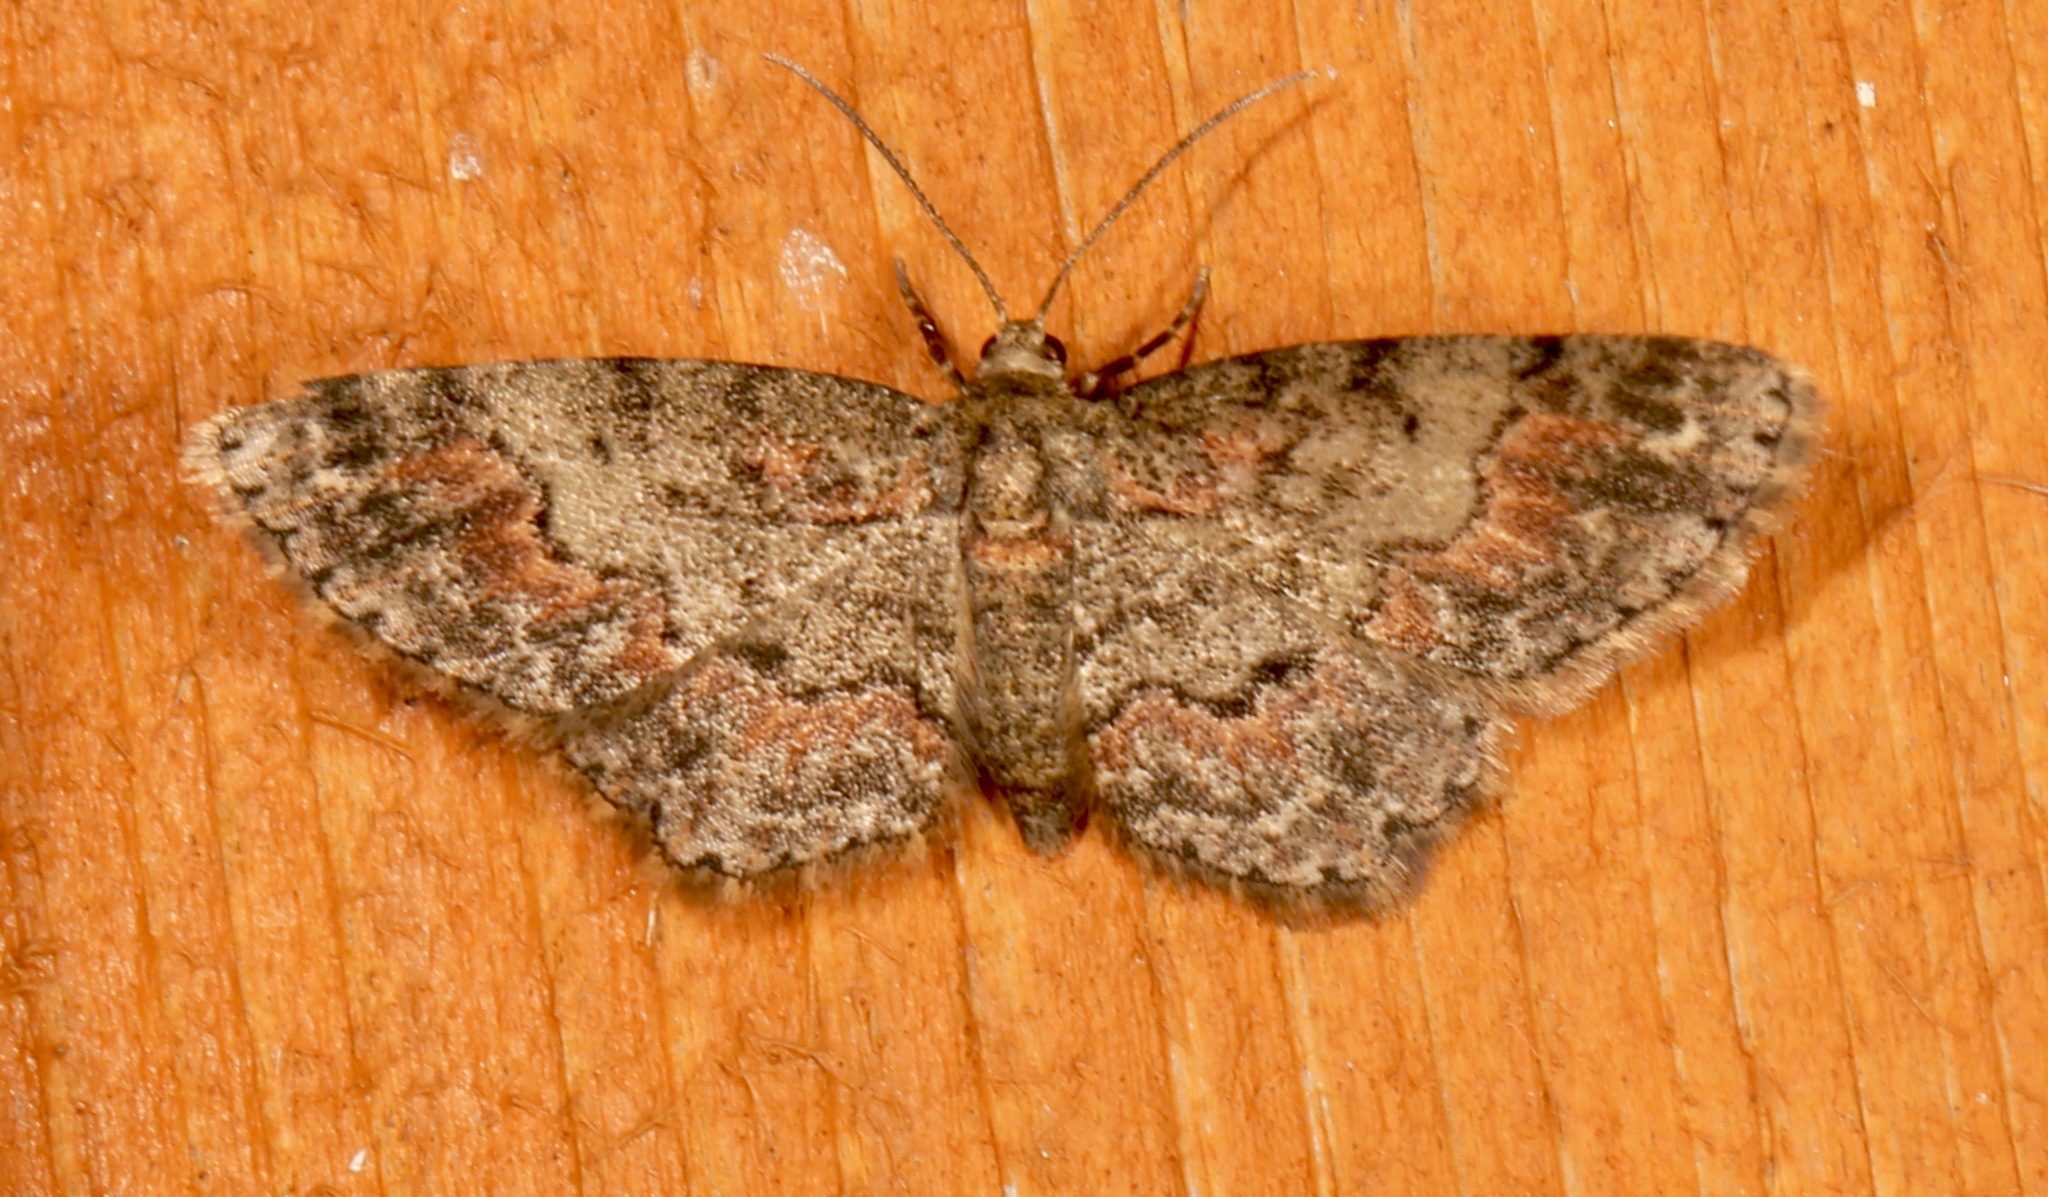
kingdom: Animalia
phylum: Arthropoda
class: Insecta
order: Lepidoptera
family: Geometridae
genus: Glenoides
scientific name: Glenoides texanaria
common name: Texas gray
